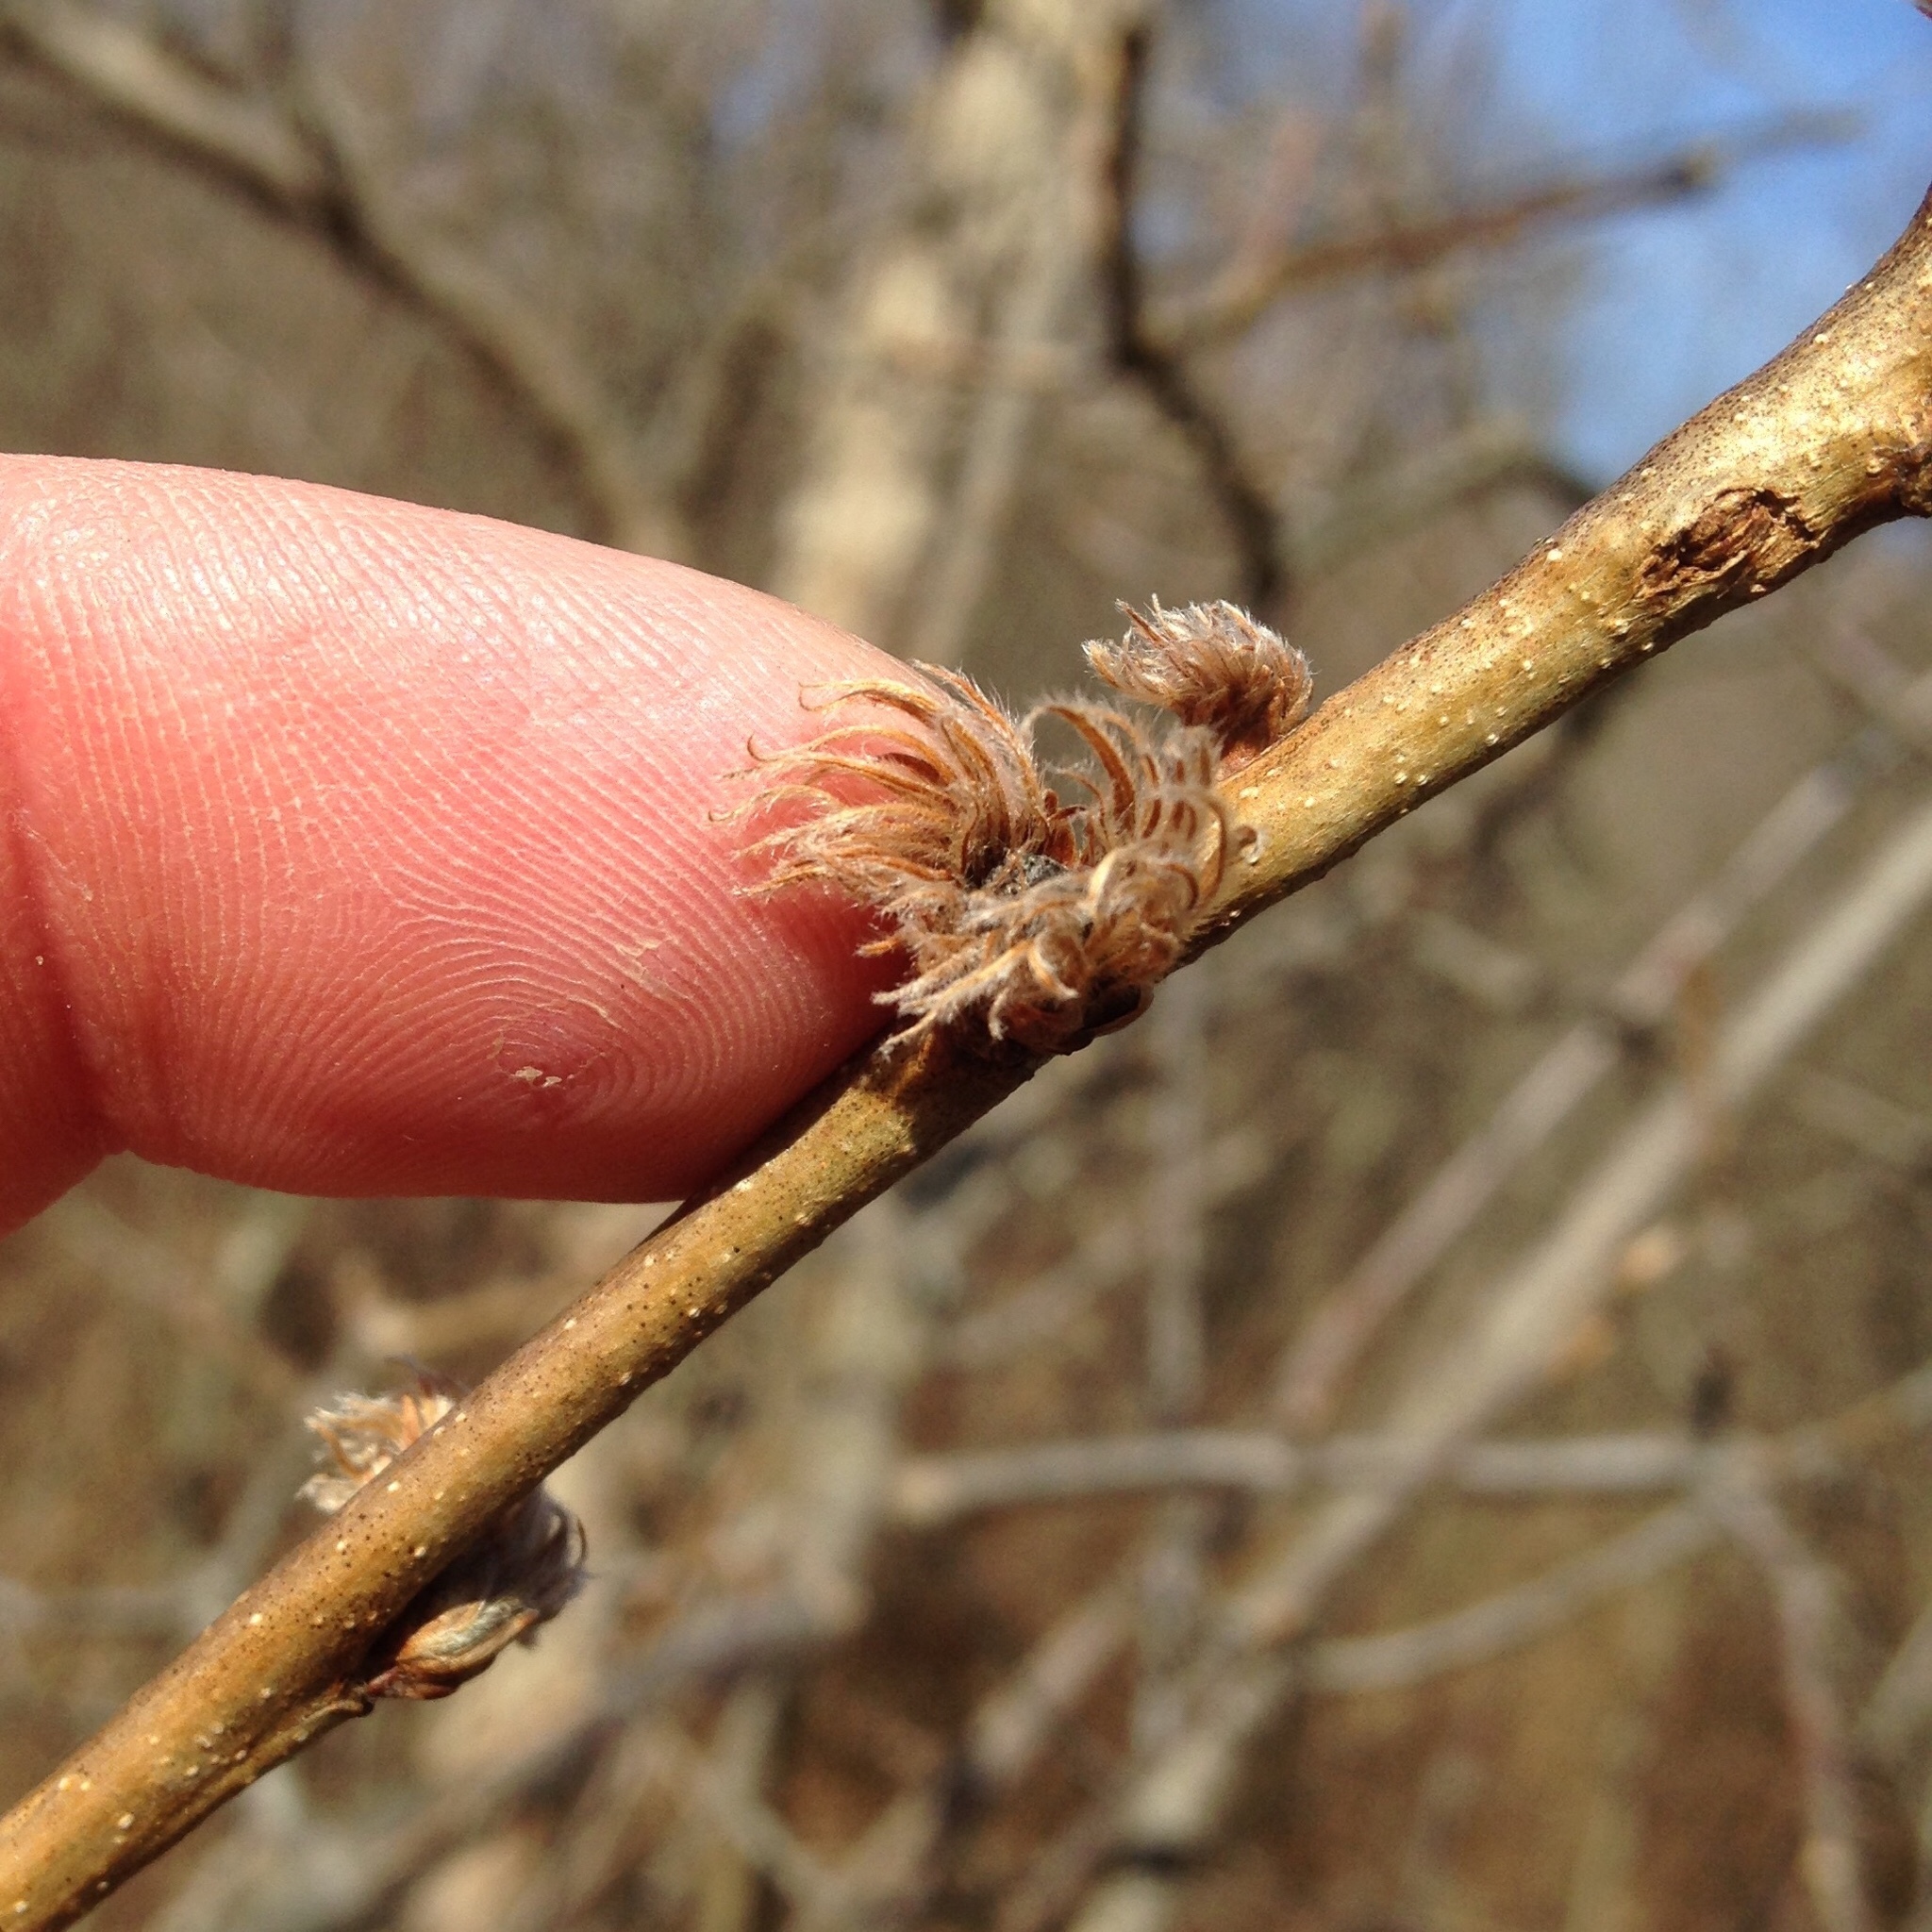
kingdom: Animalia
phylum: Arthropoda
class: Insecta
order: Hymenoptera
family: Cynipidae
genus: Andricus
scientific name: Andricus
